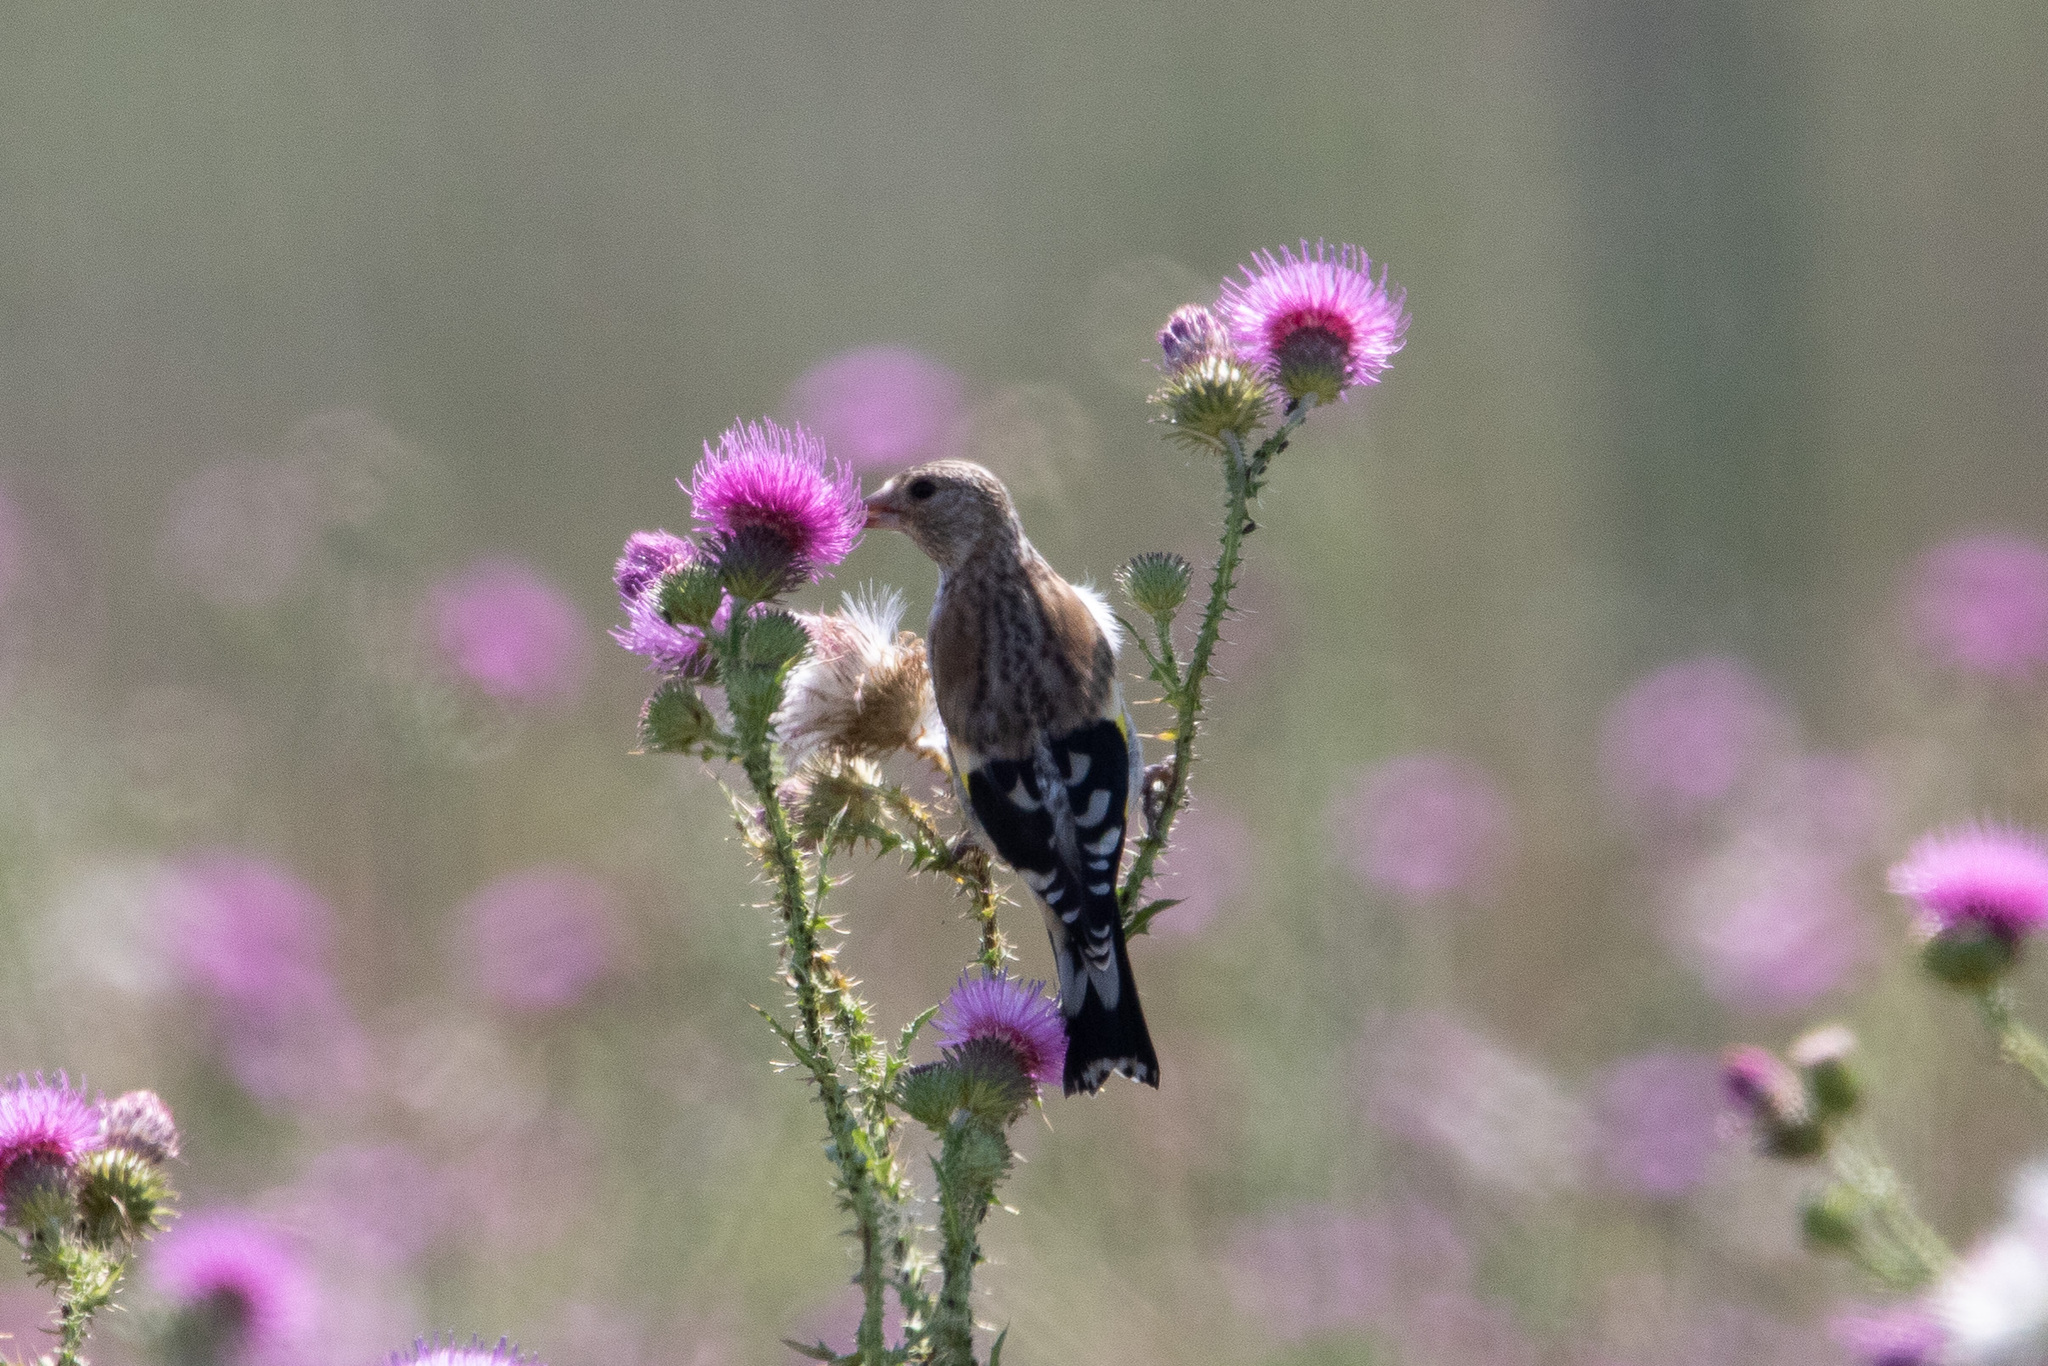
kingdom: Animalia
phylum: Chordata
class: Aves
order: Passeriformes
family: Fringillidae
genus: Carduelis
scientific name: Carduelis carduelis
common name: European goldfinch
